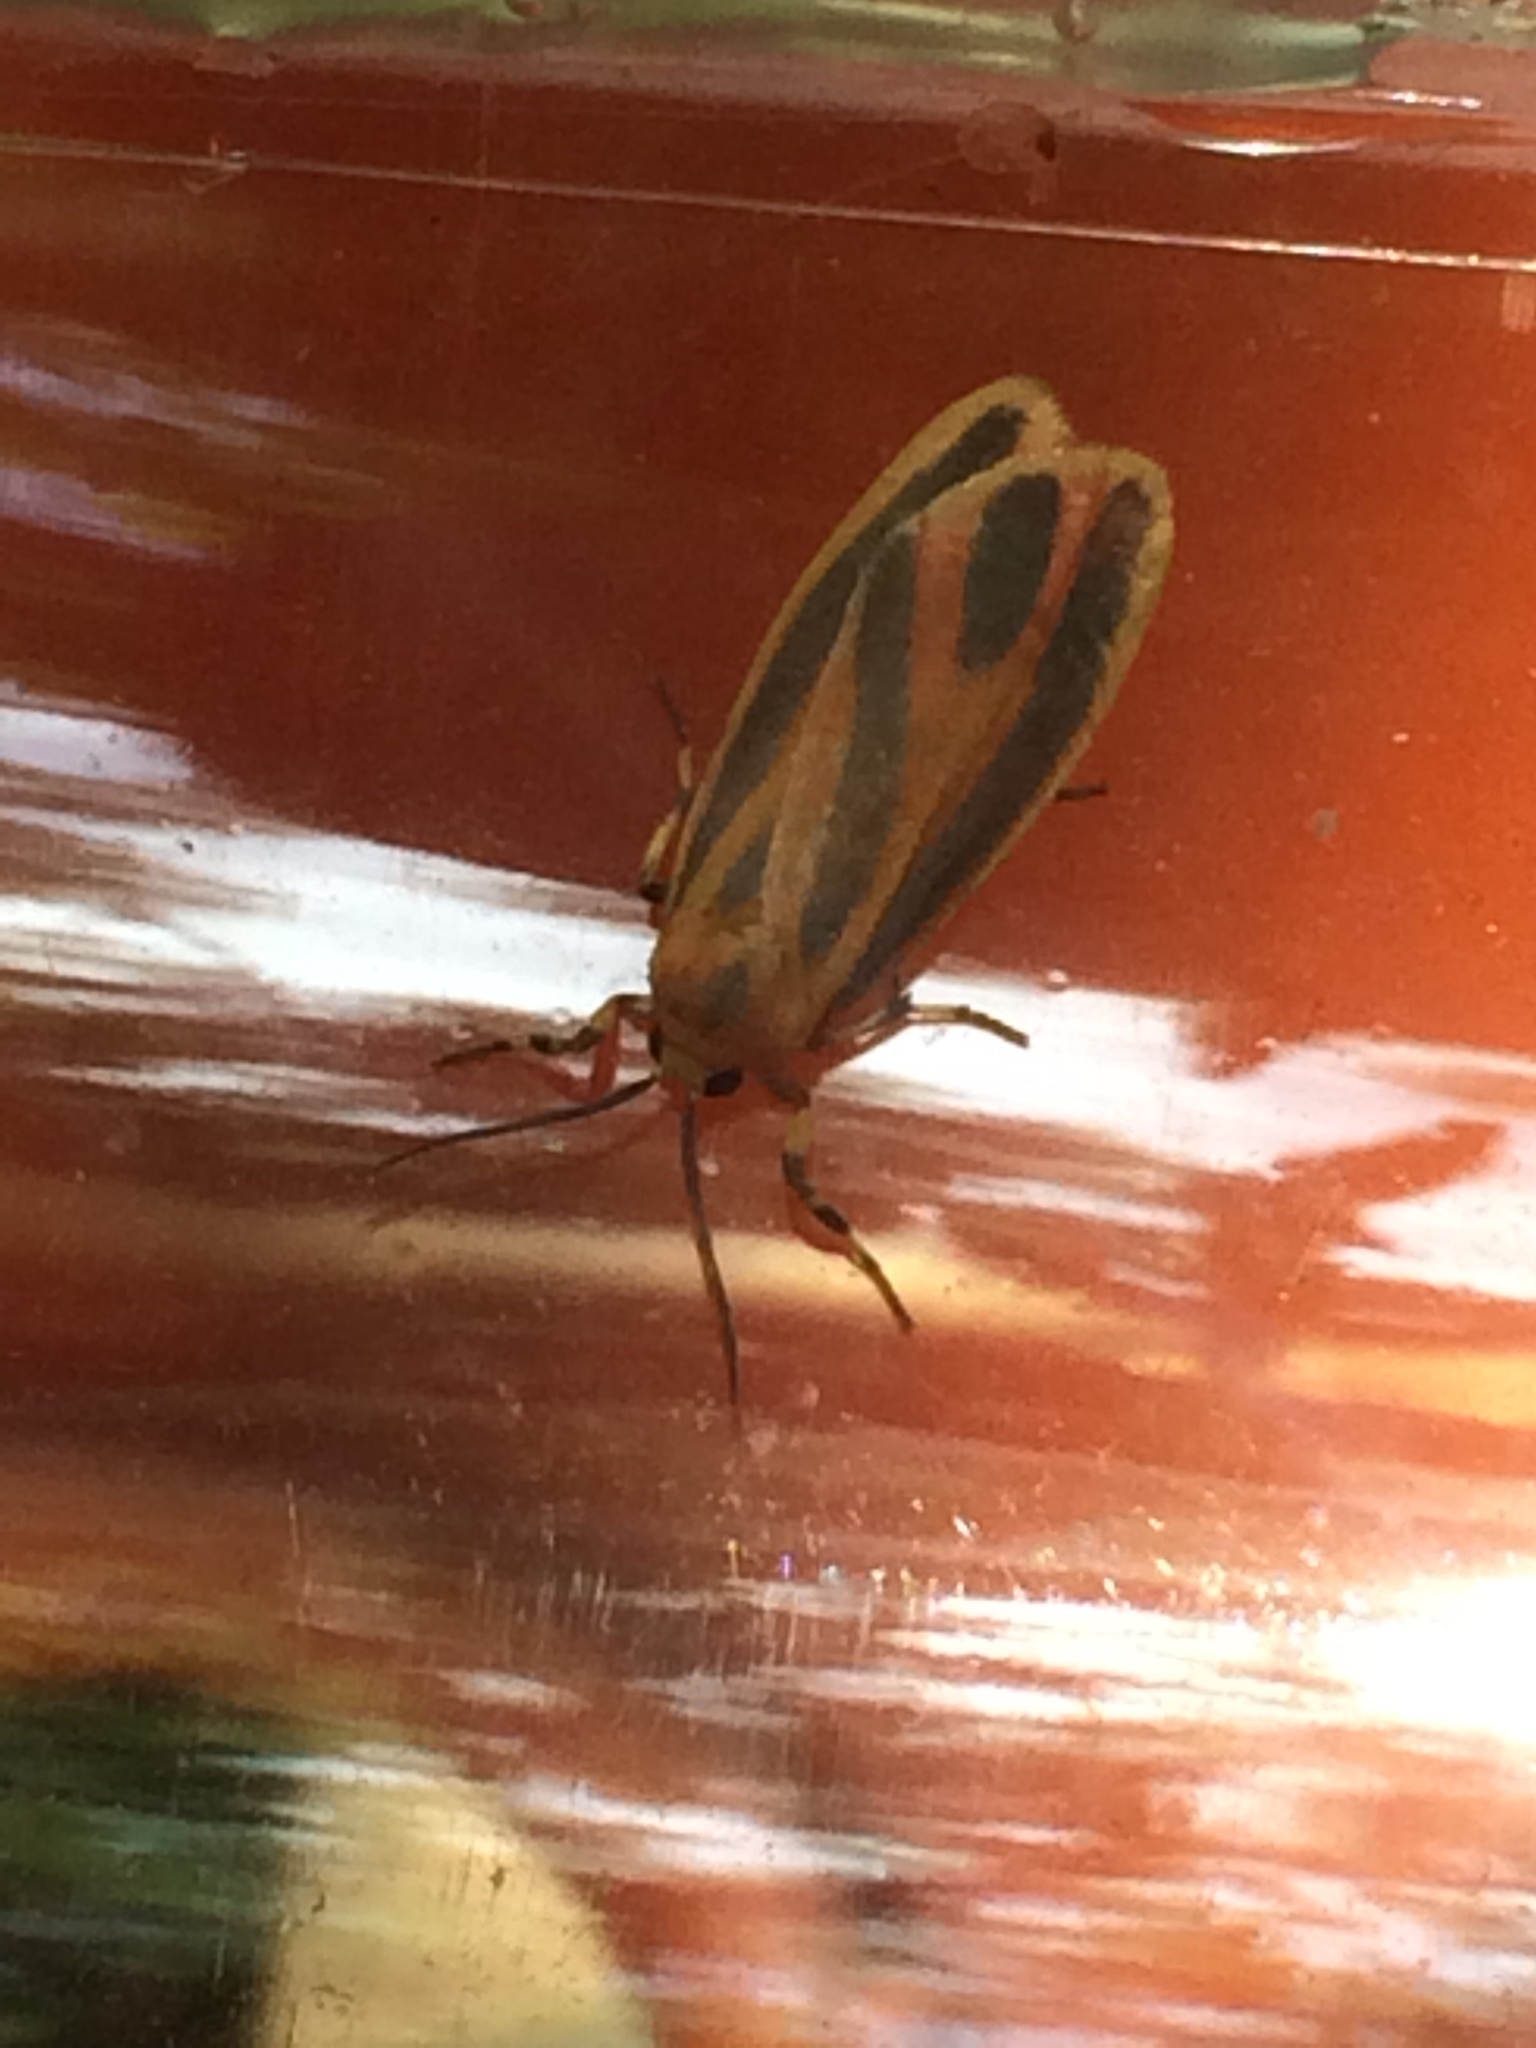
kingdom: Animalia
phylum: Arthropoda
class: Insecta
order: Lepidoptera
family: Erebidae
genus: Hypoprepia
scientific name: Hypoprepia fucosa
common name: Painted lichen moth
